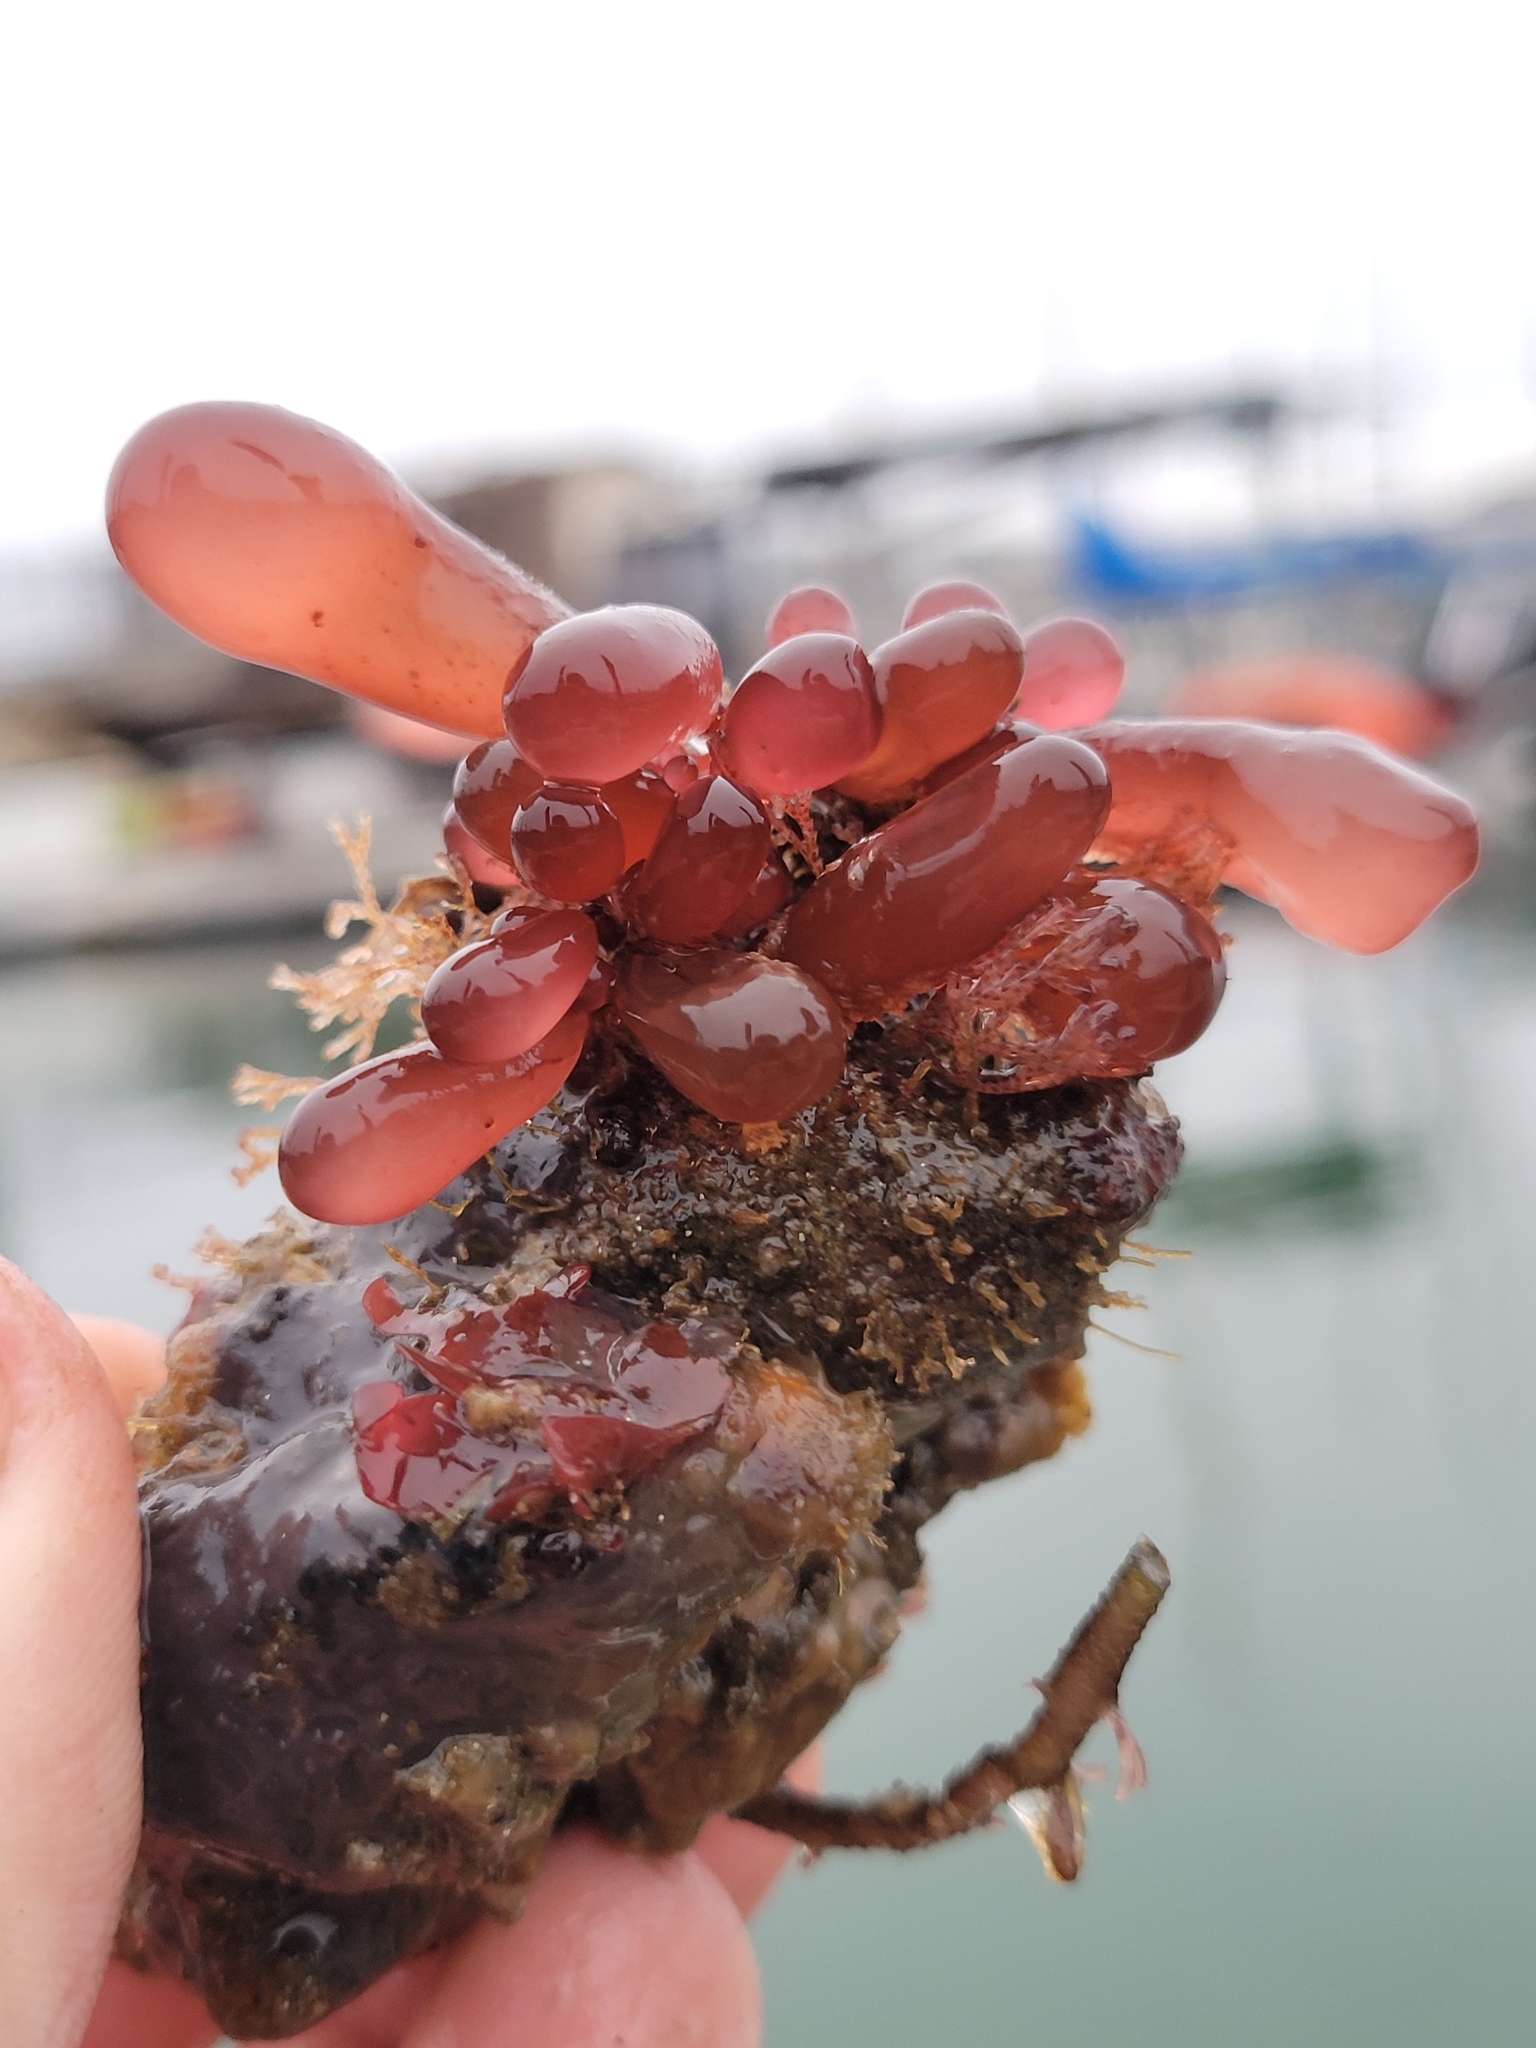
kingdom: Plantae
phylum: Rhodophyta
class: Florideophyceae
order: Rhodymeniales
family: Rhodymeniaceae
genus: Botryocladia
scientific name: Botryocladia pseudodichotoma
